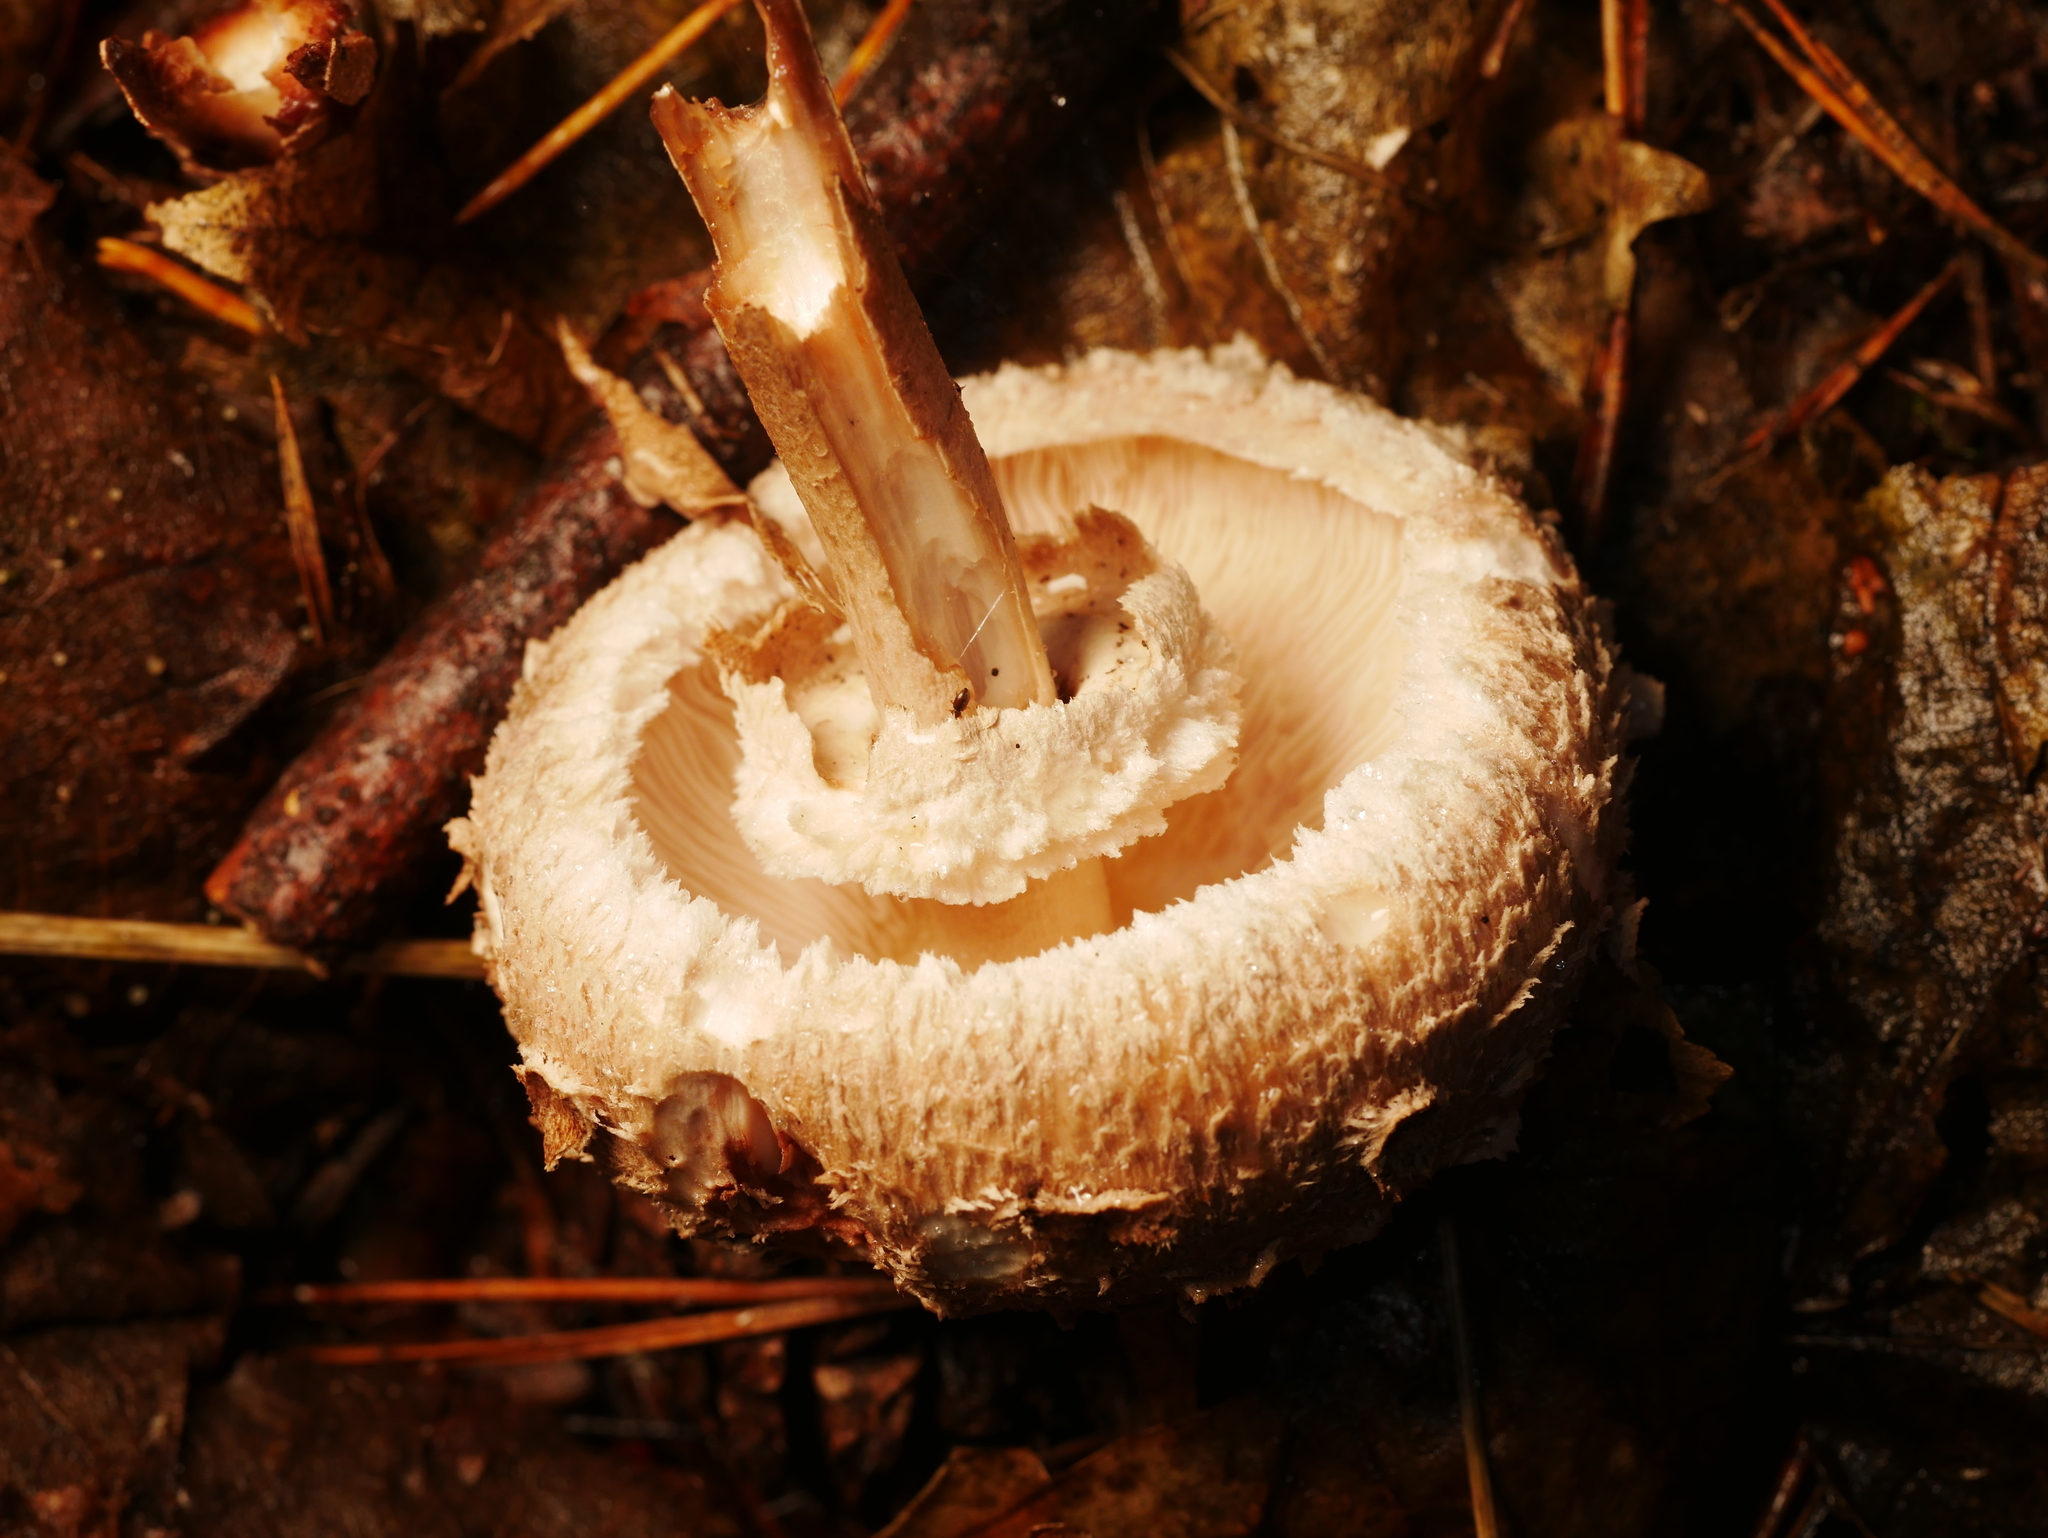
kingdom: Fungi
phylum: Basidiomycota
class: Agaricomycetes
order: Agaricales
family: Agaricaceae
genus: Chlorophyllum
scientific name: Chlorophyllum olivieri
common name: Conifer parasol
